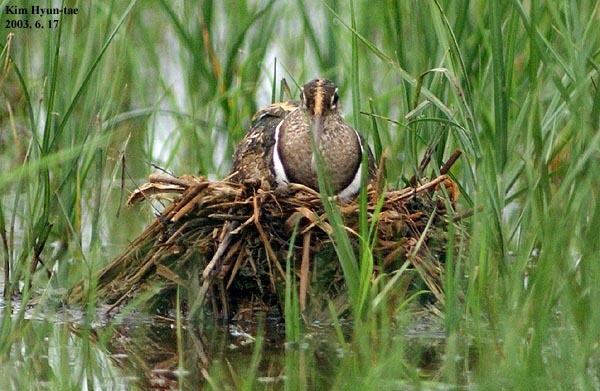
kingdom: Animalia
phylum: Chordata
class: Aves
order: Charadriiformes
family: Rostratulidae
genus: Rostratula
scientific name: Rostratula benghalensis
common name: Greater painted-snipe
